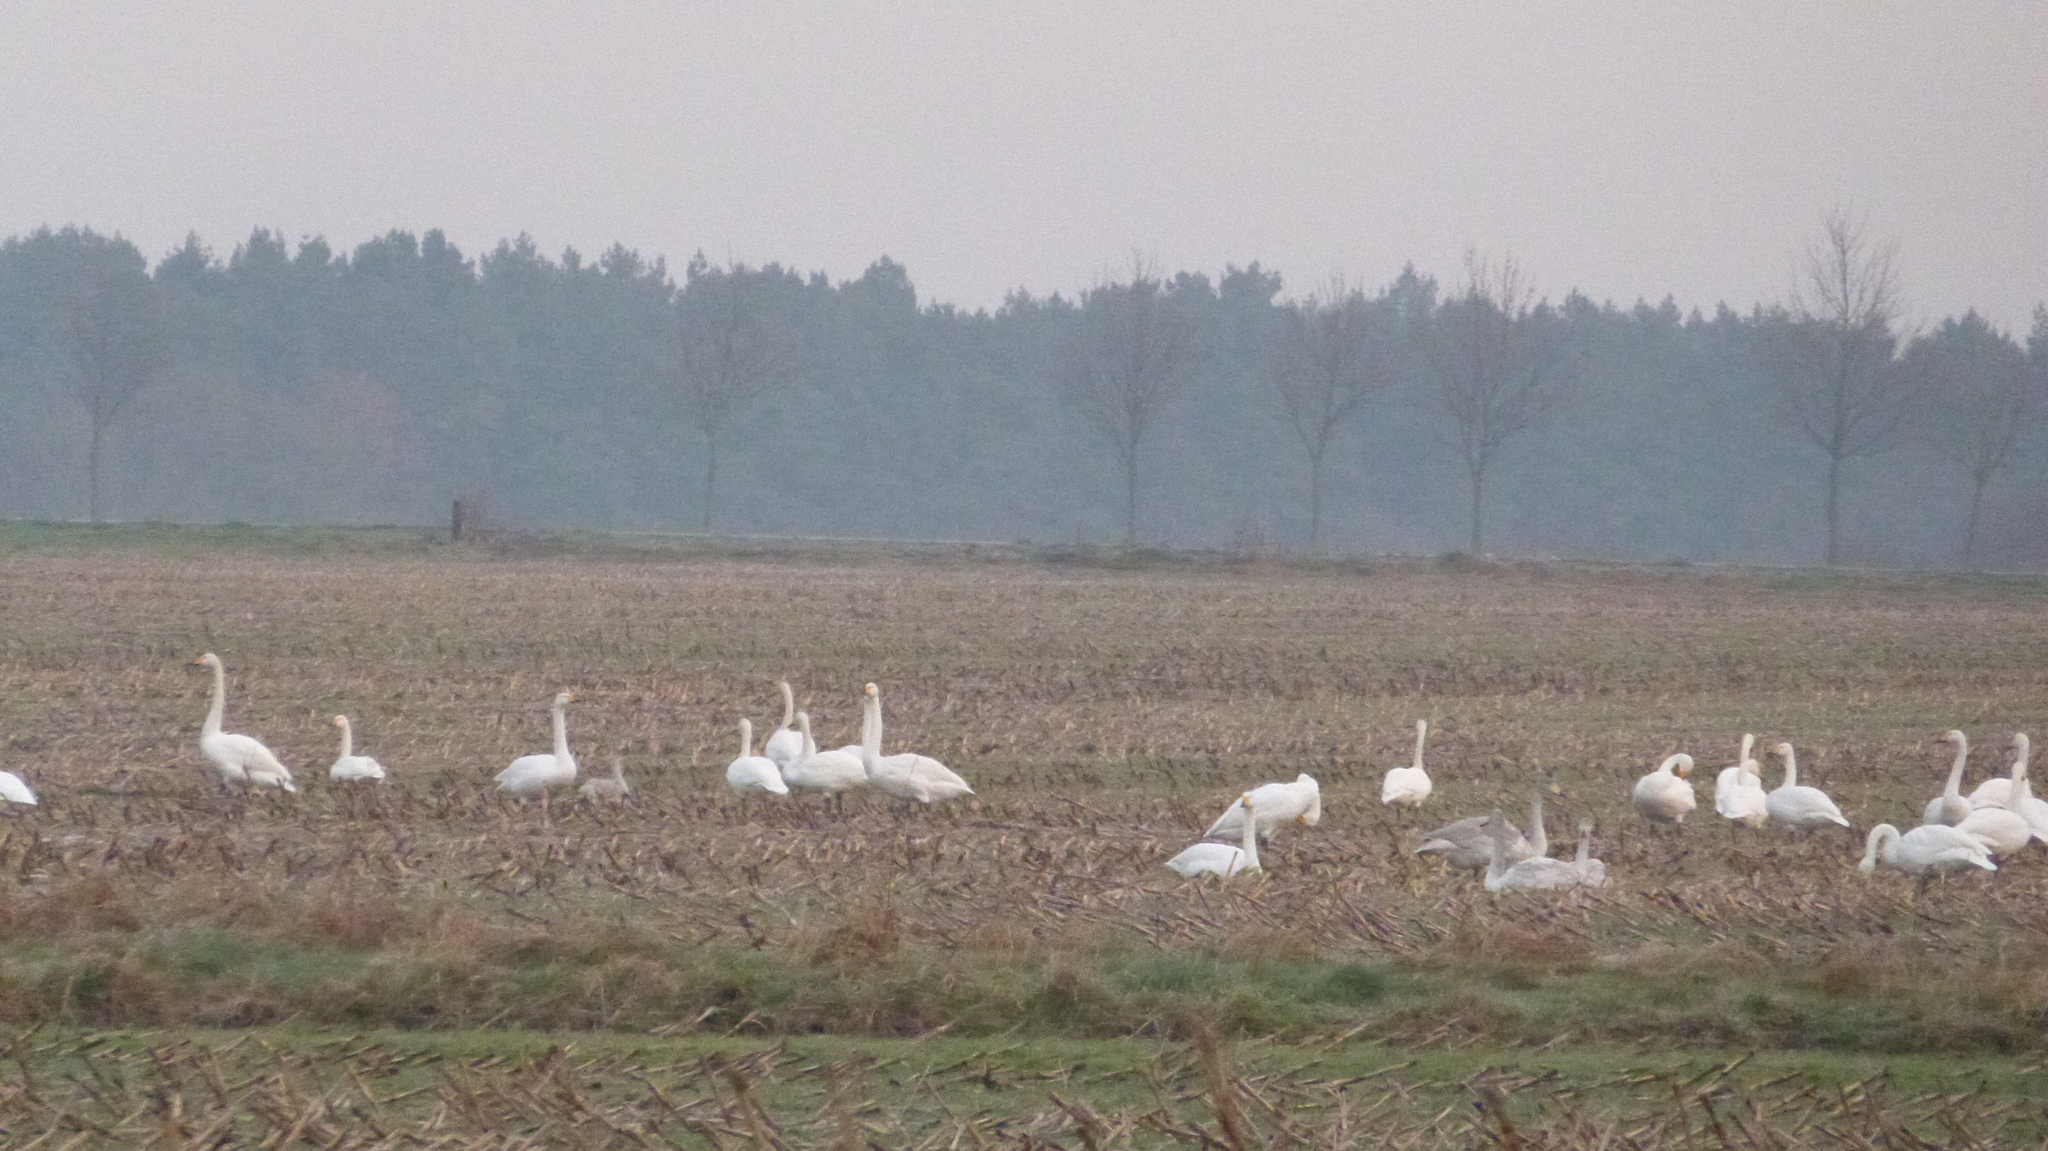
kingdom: Animalia
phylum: Chordata
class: Aves
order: Anseriformes
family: Anatidae
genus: Cygnus
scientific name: Cygnus cygnus
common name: Whooper swan
